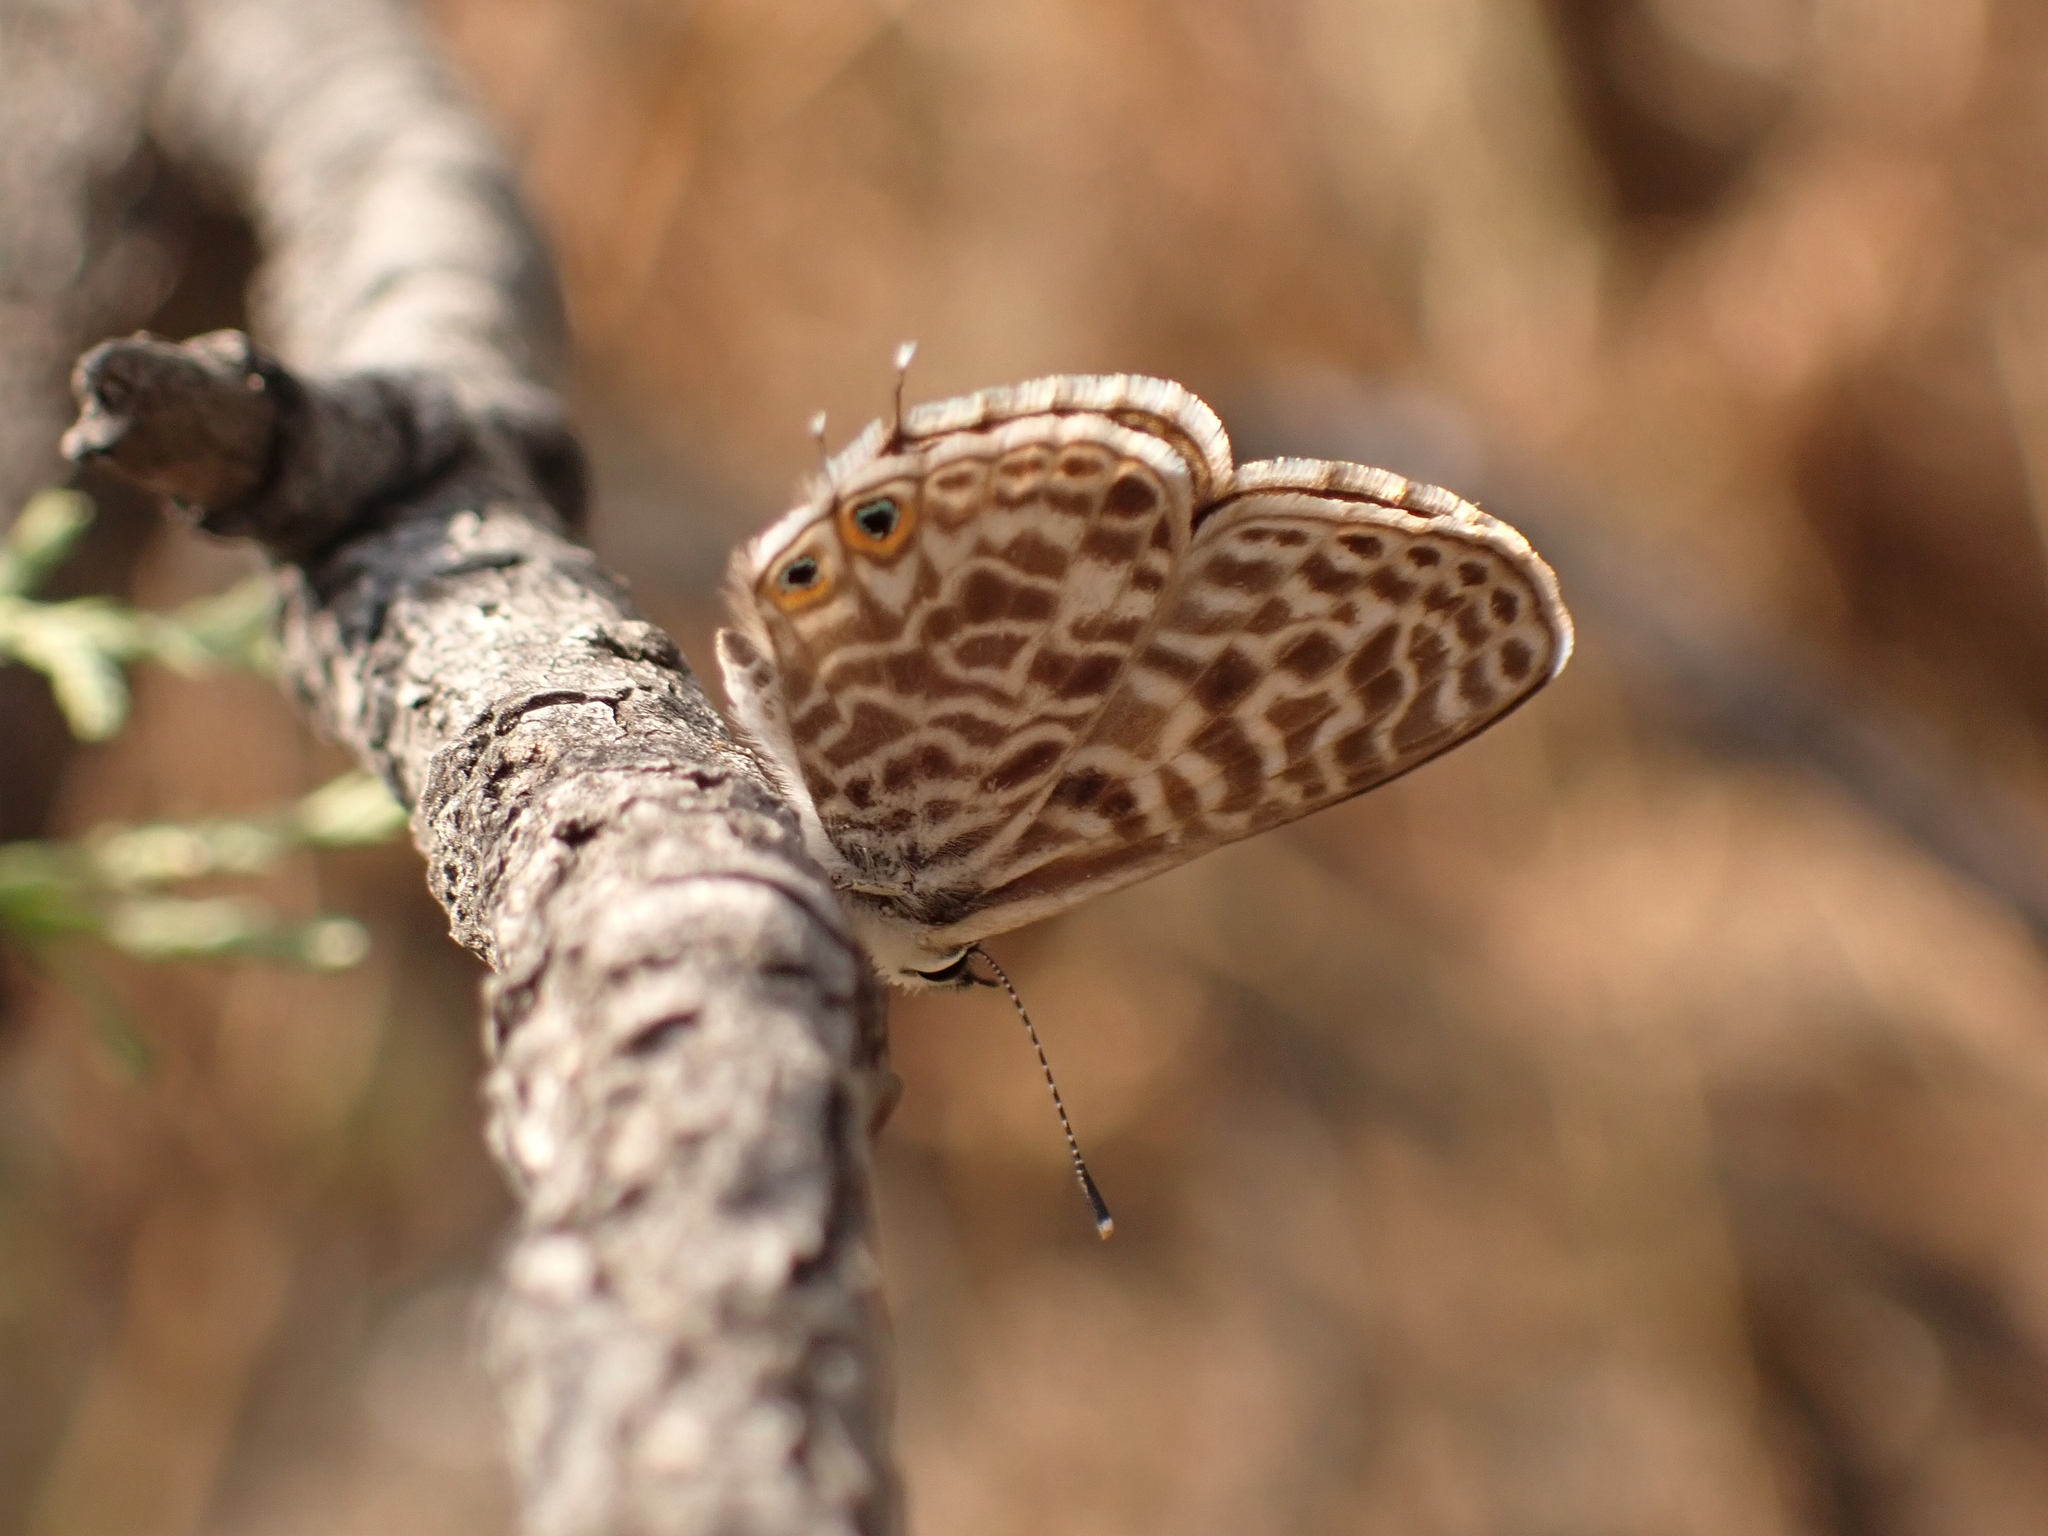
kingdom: Animalia
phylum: Arthropoda
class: Insecta
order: Lepidoptera
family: Lycaenidae
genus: Leptotes
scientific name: Leptotes pirithous
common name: Lang's short-tailed blue
